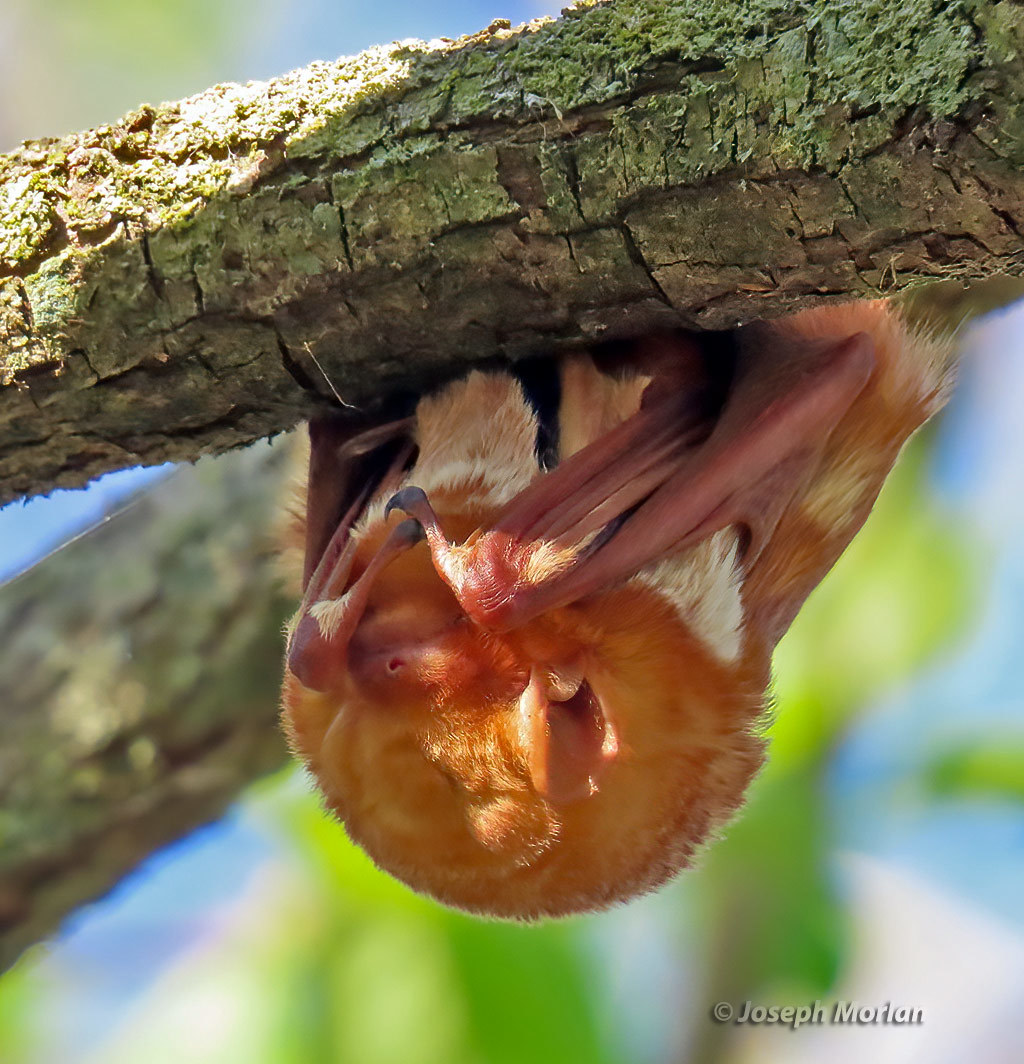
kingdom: Animalia
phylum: Chordata
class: Mammalia
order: Chiroptera
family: Vespertilionidae
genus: Lasiurus
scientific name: Lasiurus borealis
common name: Eastern red bat
